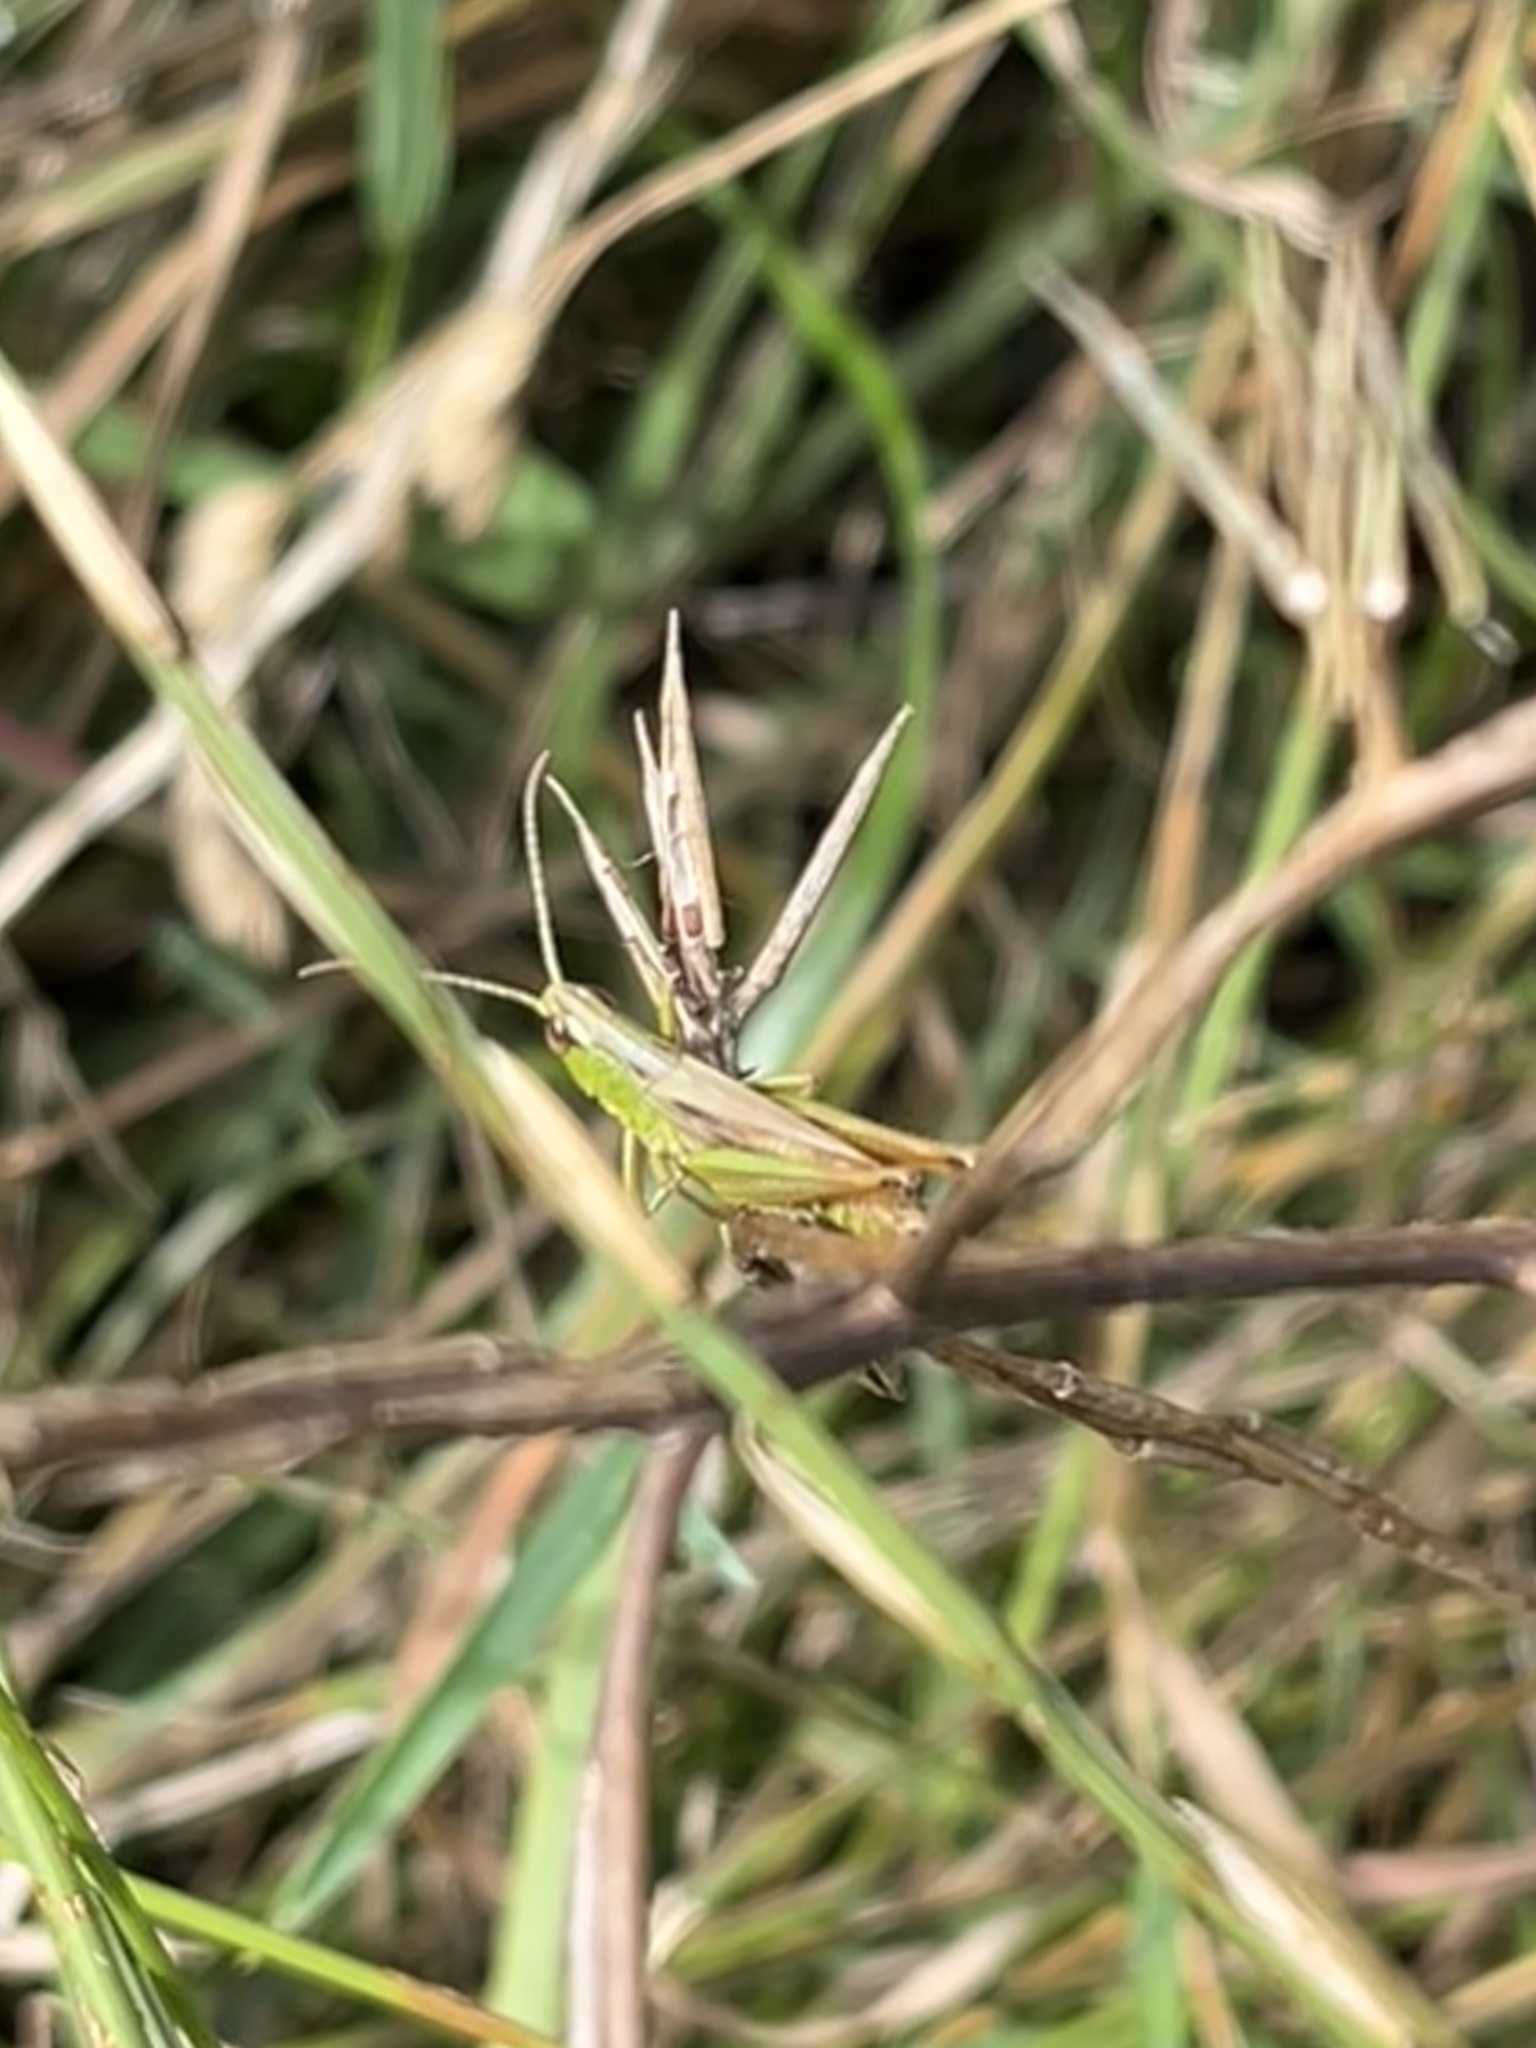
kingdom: Animalia
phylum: Arthropoda
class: Insecta
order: Orthoptera
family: Acrididae
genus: Pseudochorthippus
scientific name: Pseudochorthippus parallelus
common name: Meadow grasshopper
